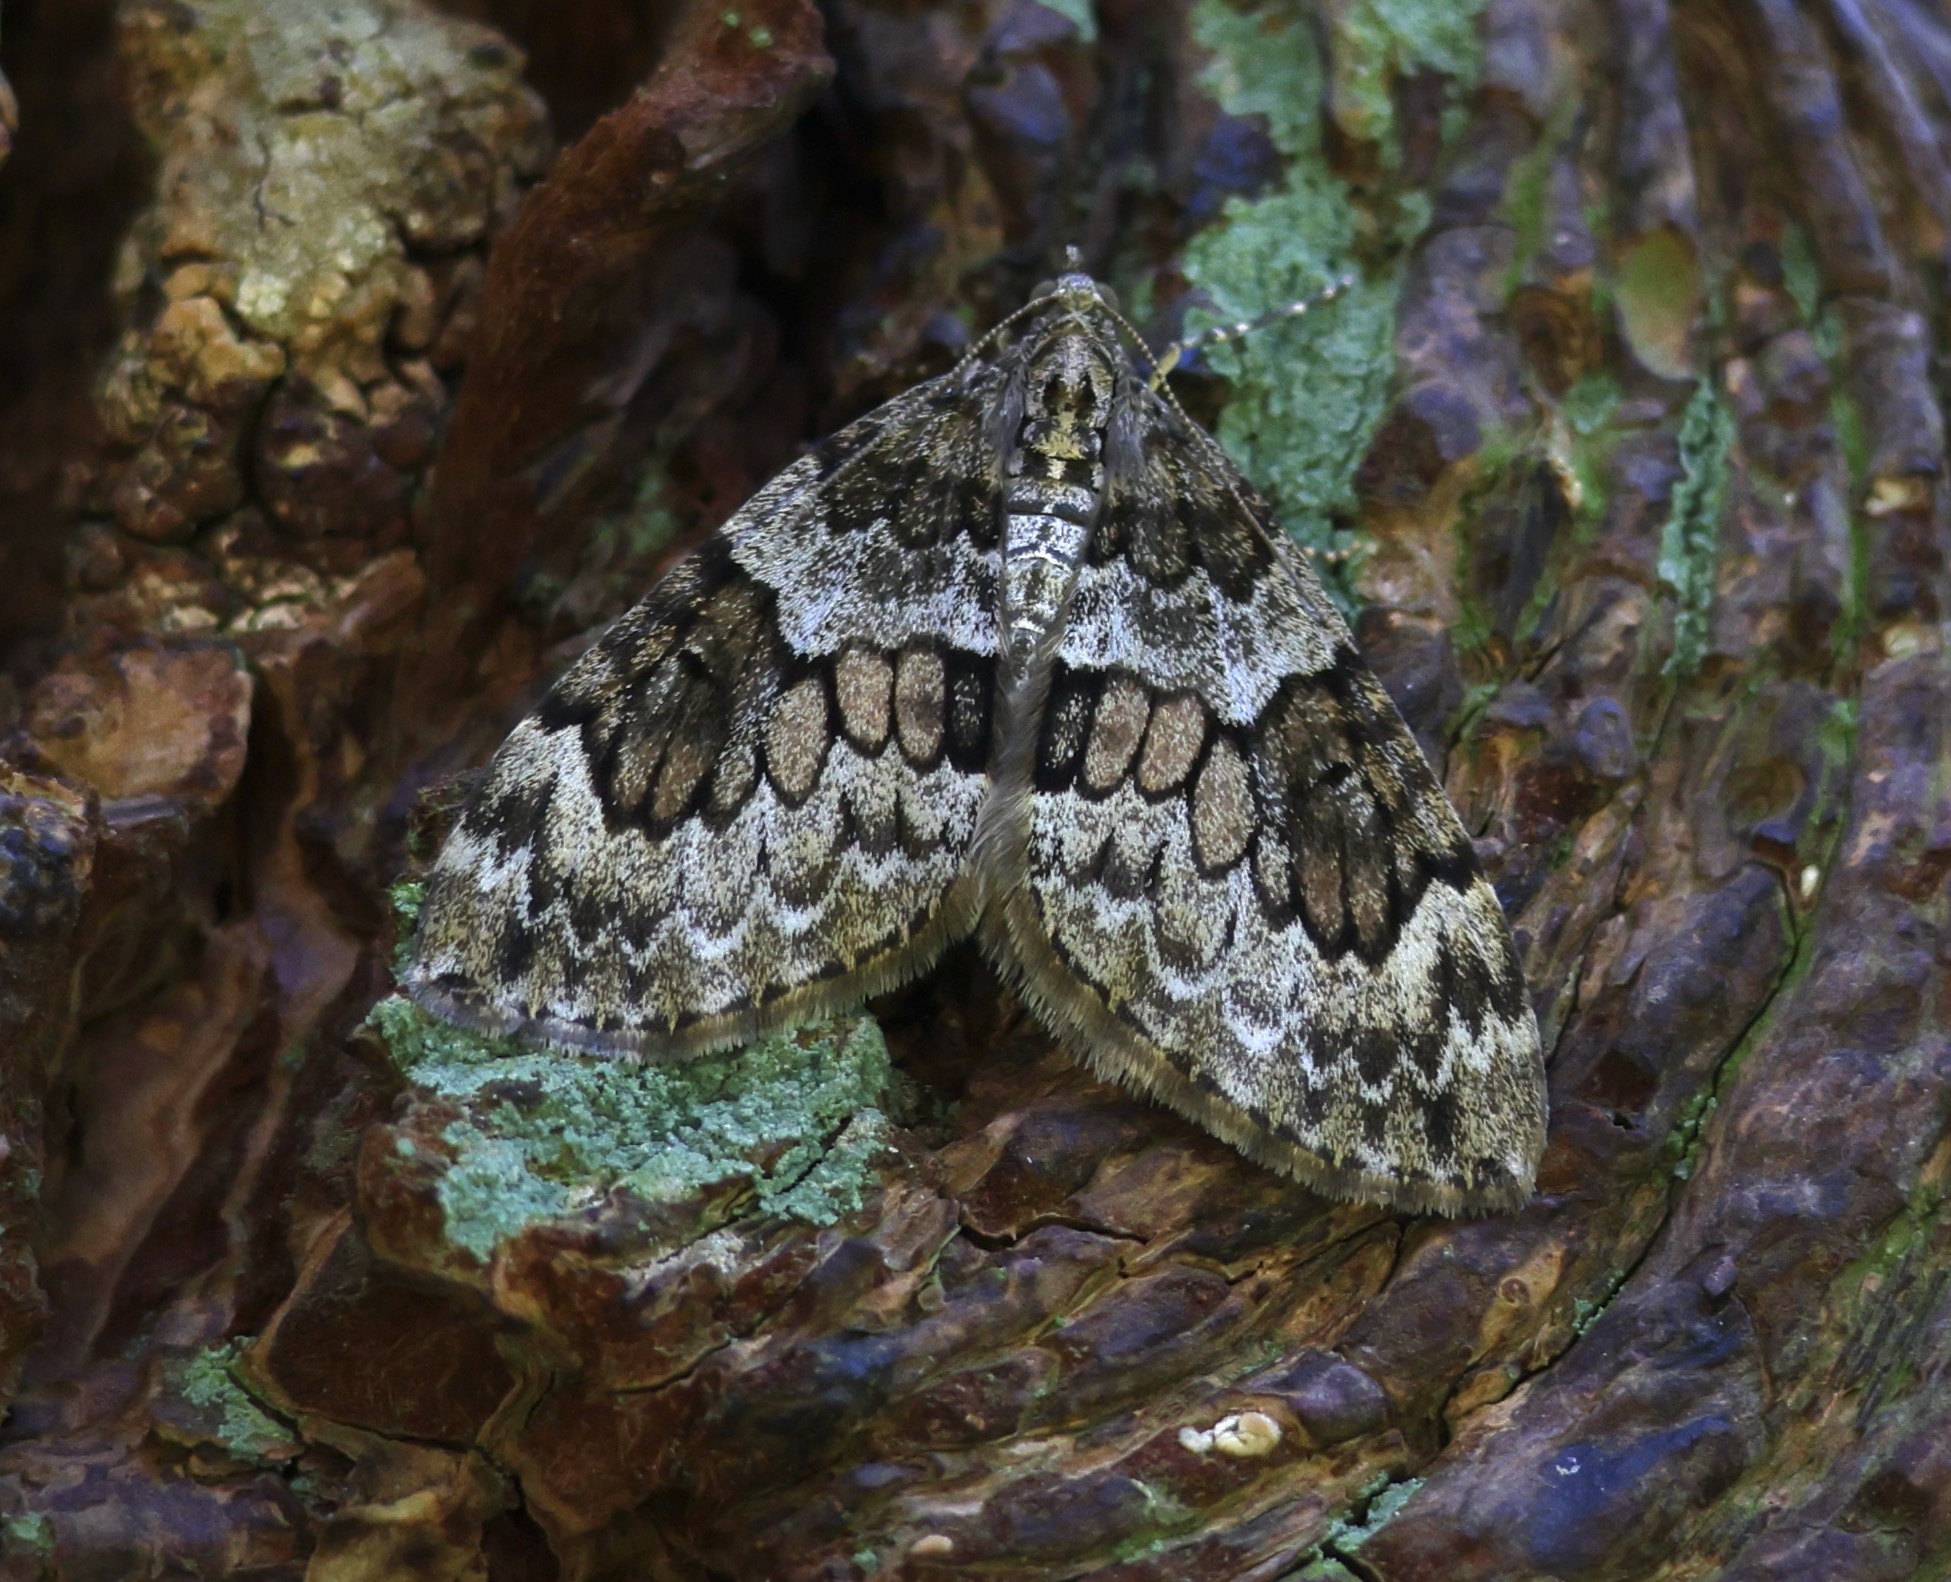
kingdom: Animalia
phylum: Arthropoda
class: Insecta
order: Lepidoptera
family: Geometridae
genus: Thera
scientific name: Thera britannica
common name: Spruce carpet
